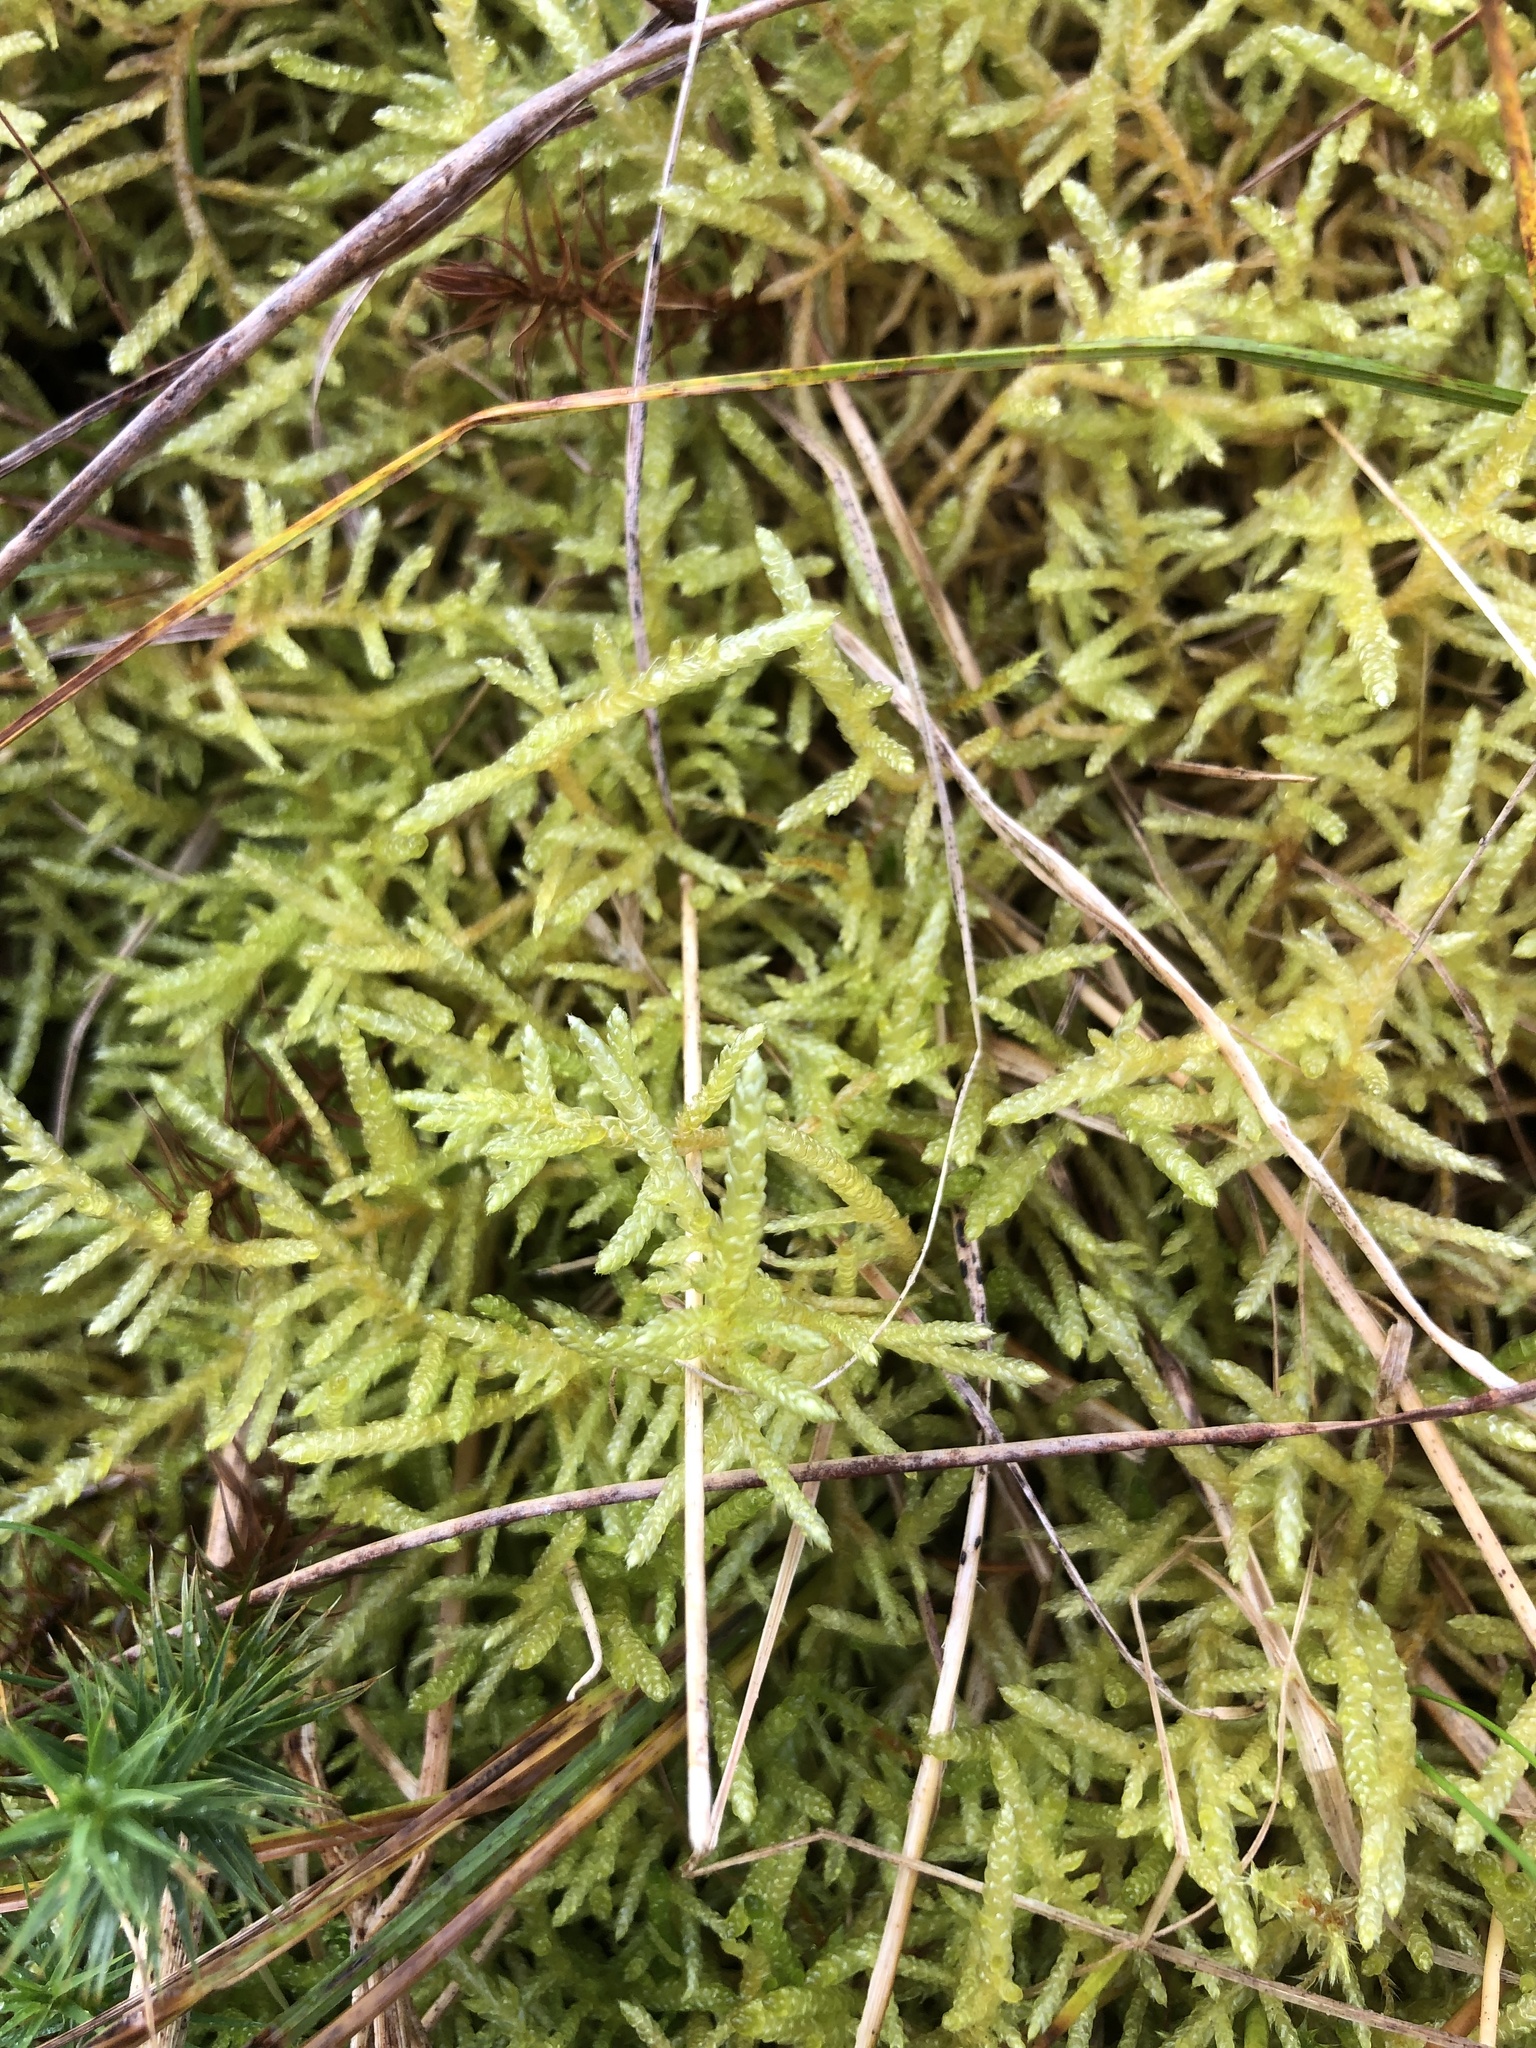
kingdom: Plantae
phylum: Bryophyta
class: Bryopsida
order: Hypnales
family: Brachytheciaceae
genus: Pseudoscleropodium
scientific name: Pseudoscleropodium purum
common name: Neat feather-moss
